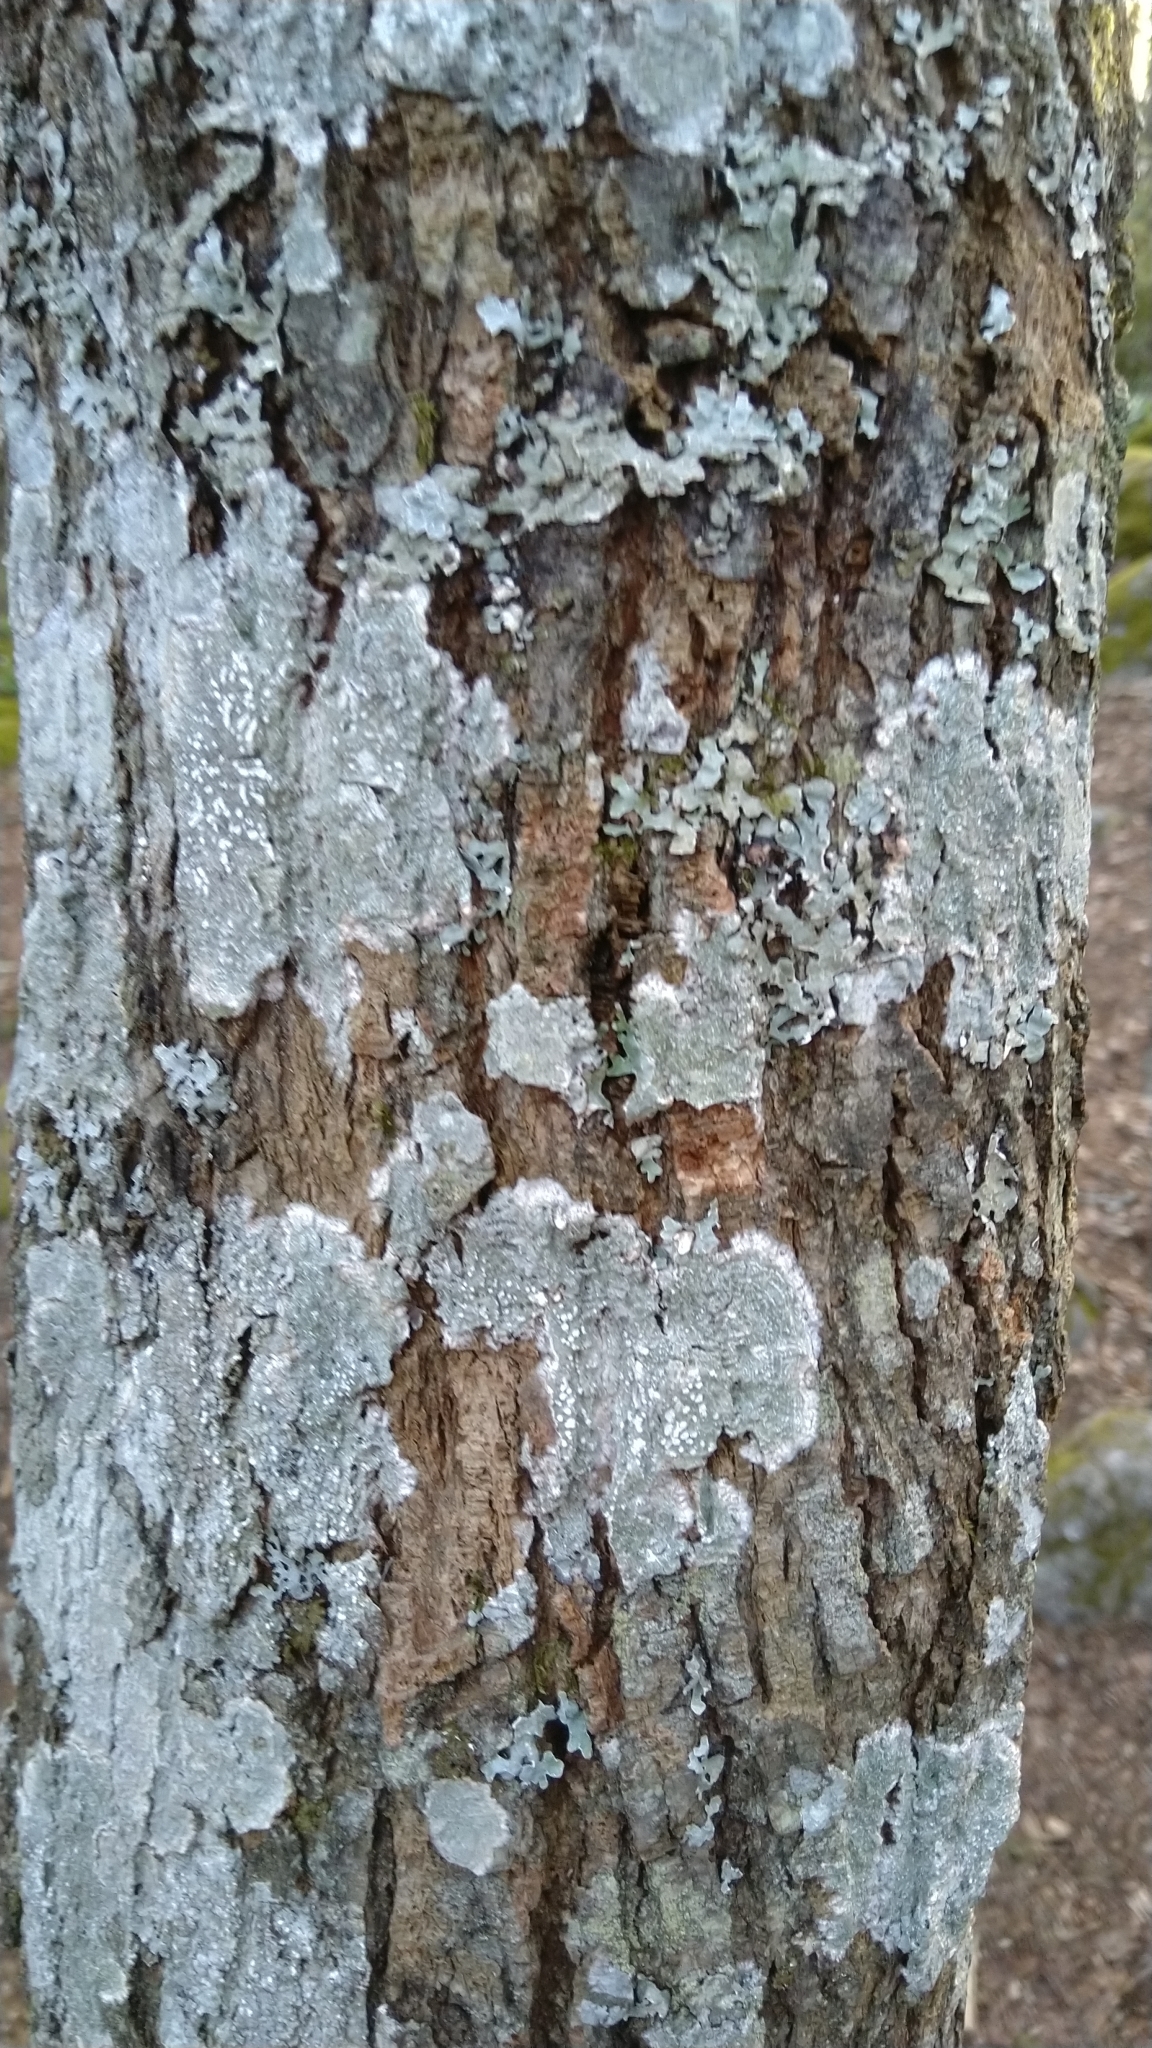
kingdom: Fungi
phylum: Ascomycota
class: Lecanoromycetes
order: Pertusariales
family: Pertusariaceae
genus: Lepra
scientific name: Lepra albescens
